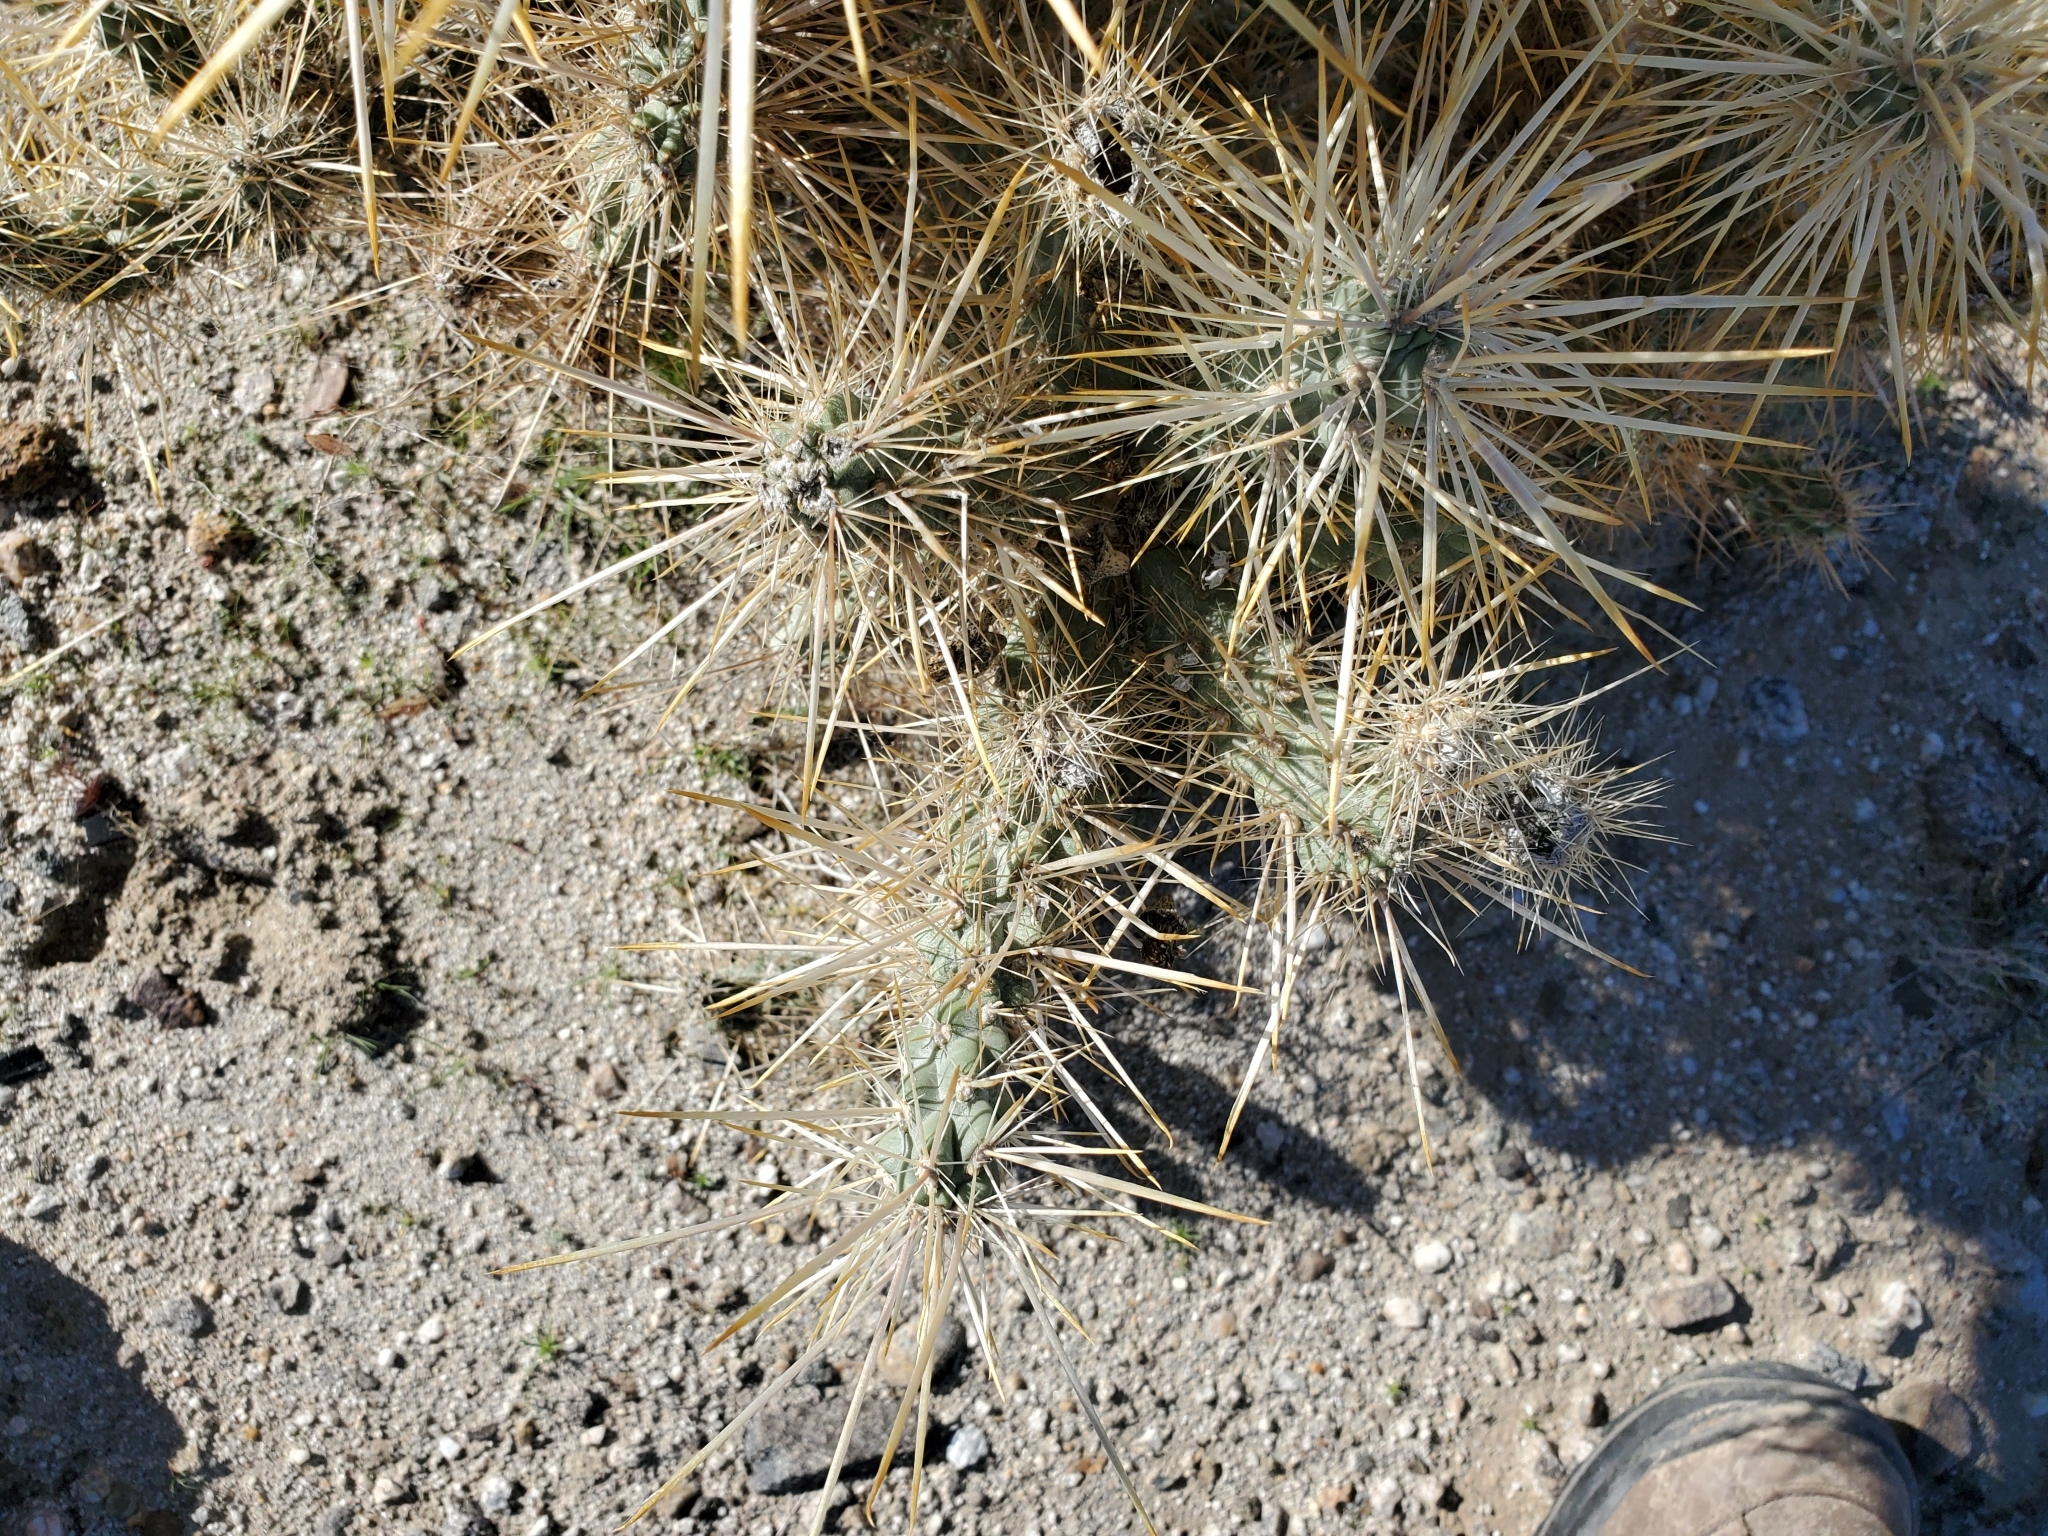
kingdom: Plantae
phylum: Tracheophyta
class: Magnoliopsida
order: Caryophyllales
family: Cactaceae
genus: Cylindropuntia
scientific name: Cylindropuntia echinocarpa
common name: Ground cholla
